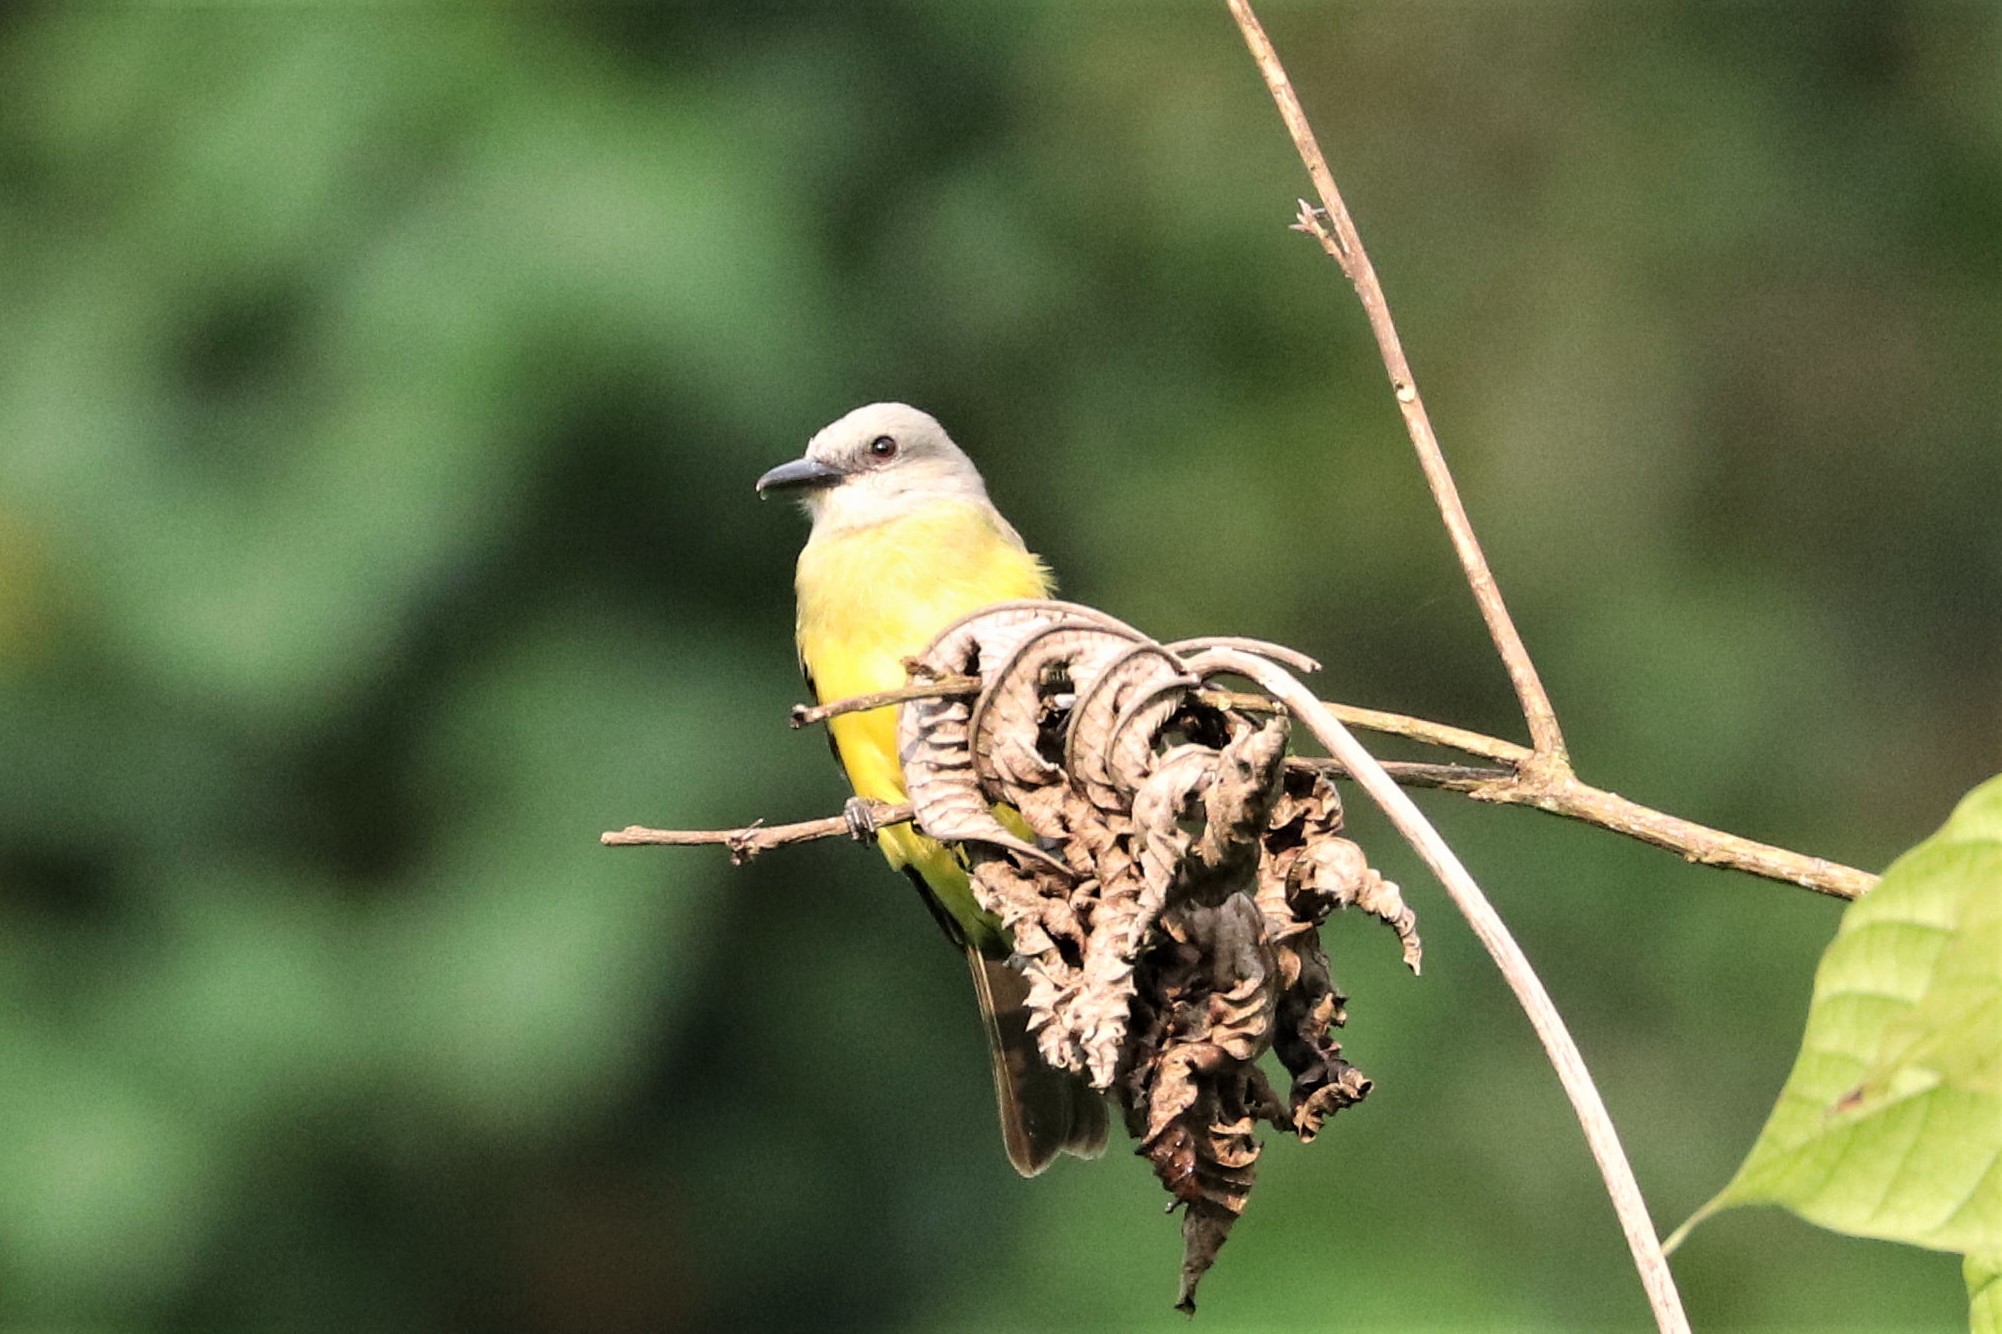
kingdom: Animalia
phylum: Chordata
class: Aves
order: Passeriformes
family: Tyrannidae
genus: Tyrannus
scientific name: Tyrannus melancholicus
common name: Tropical kingbird
